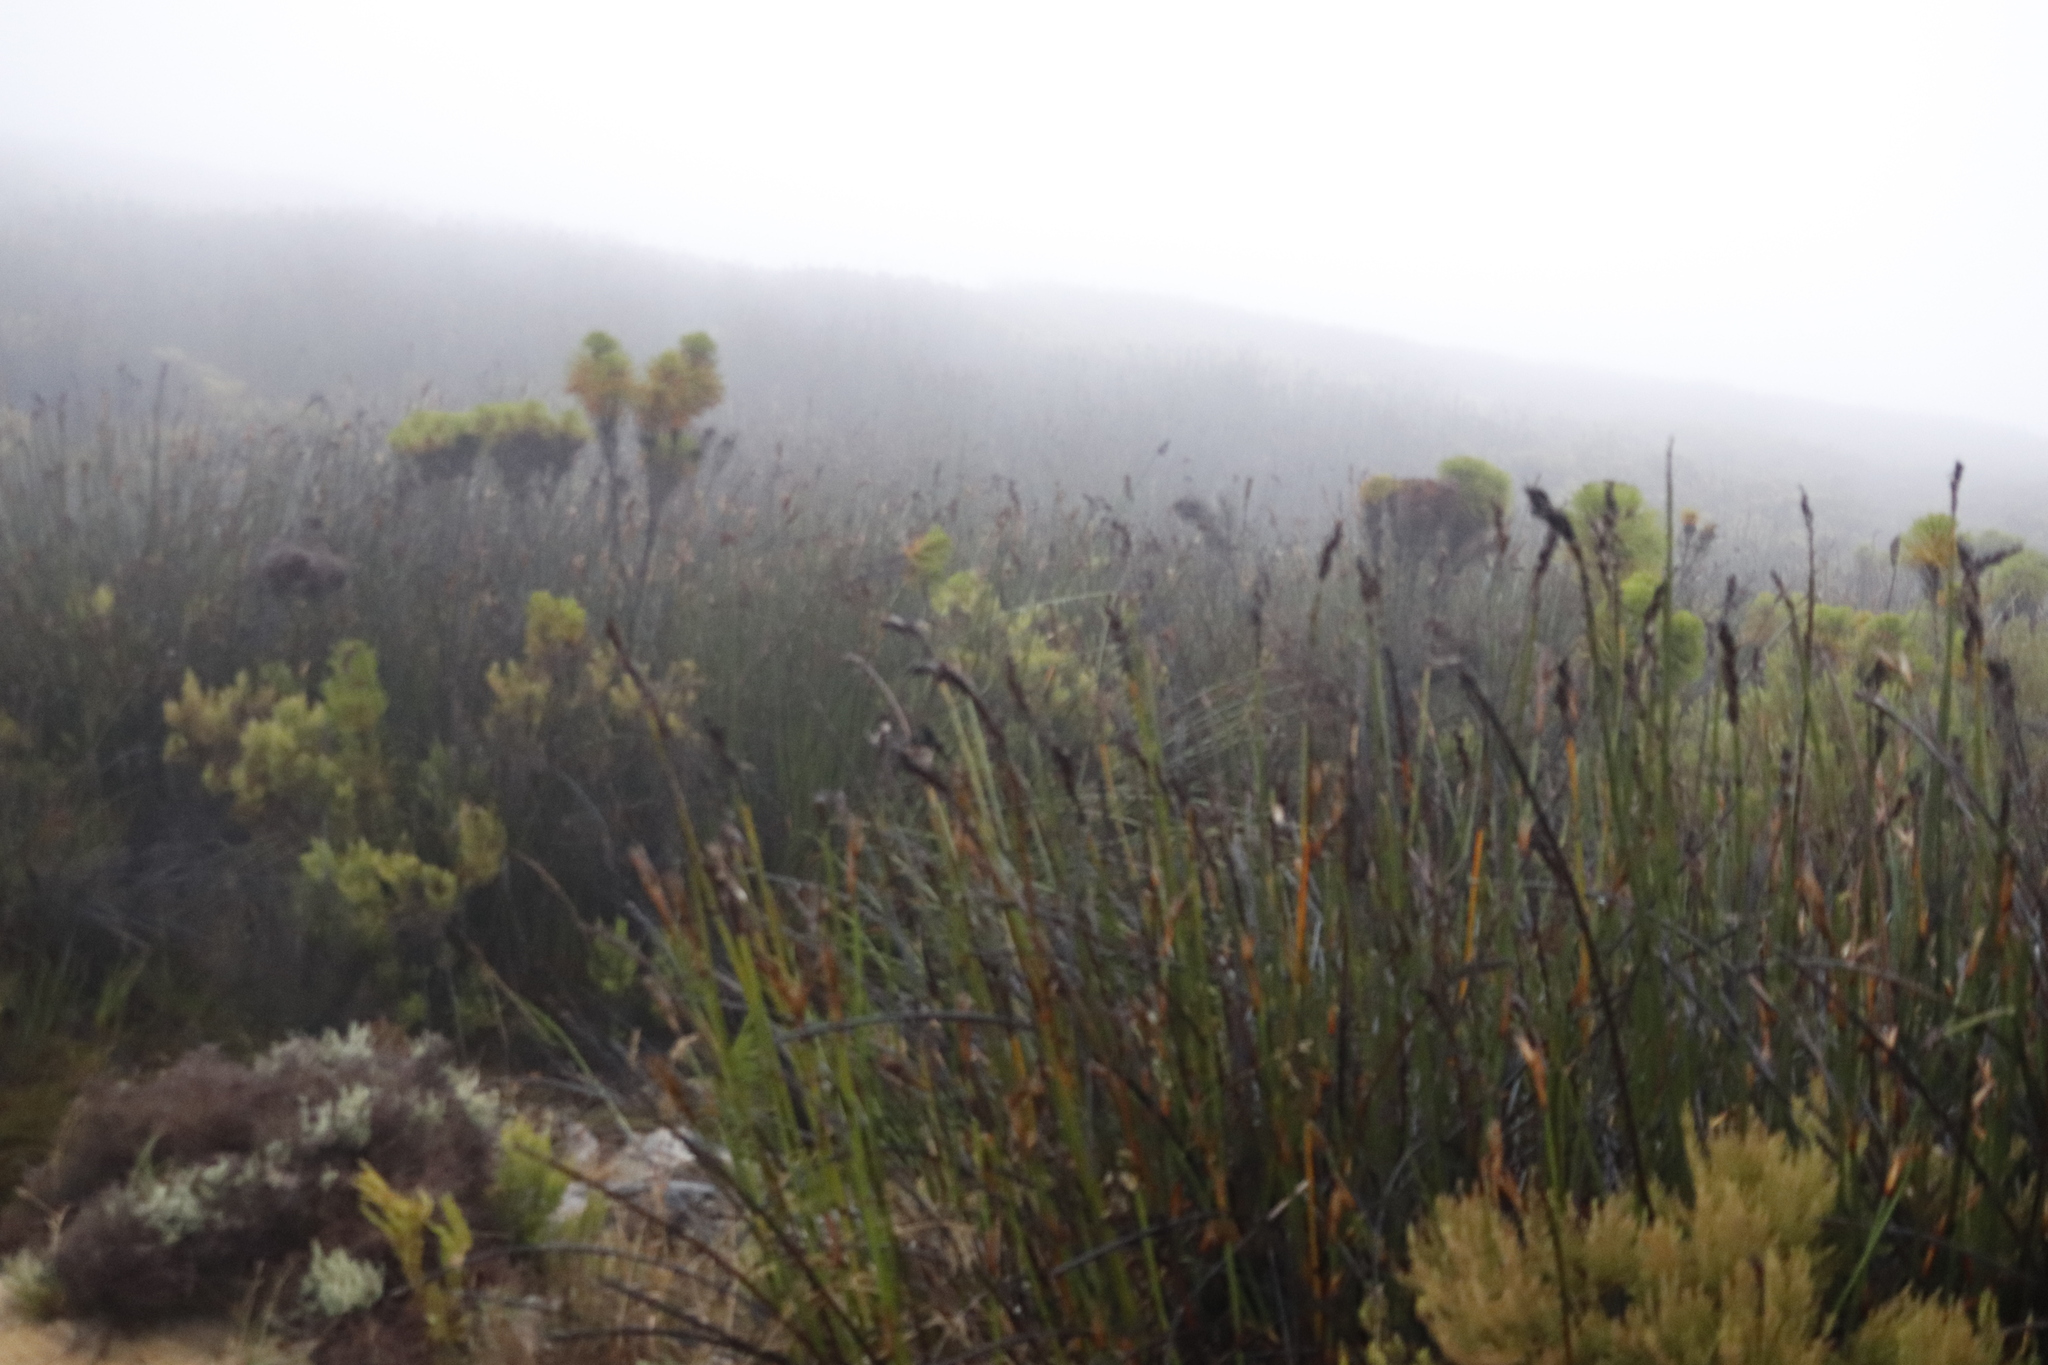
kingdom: Plantae
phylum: Tracheophyta
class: Liliopsida
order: Poales
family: Restionaceae
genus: Elegia
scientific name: Elegia mucronata
